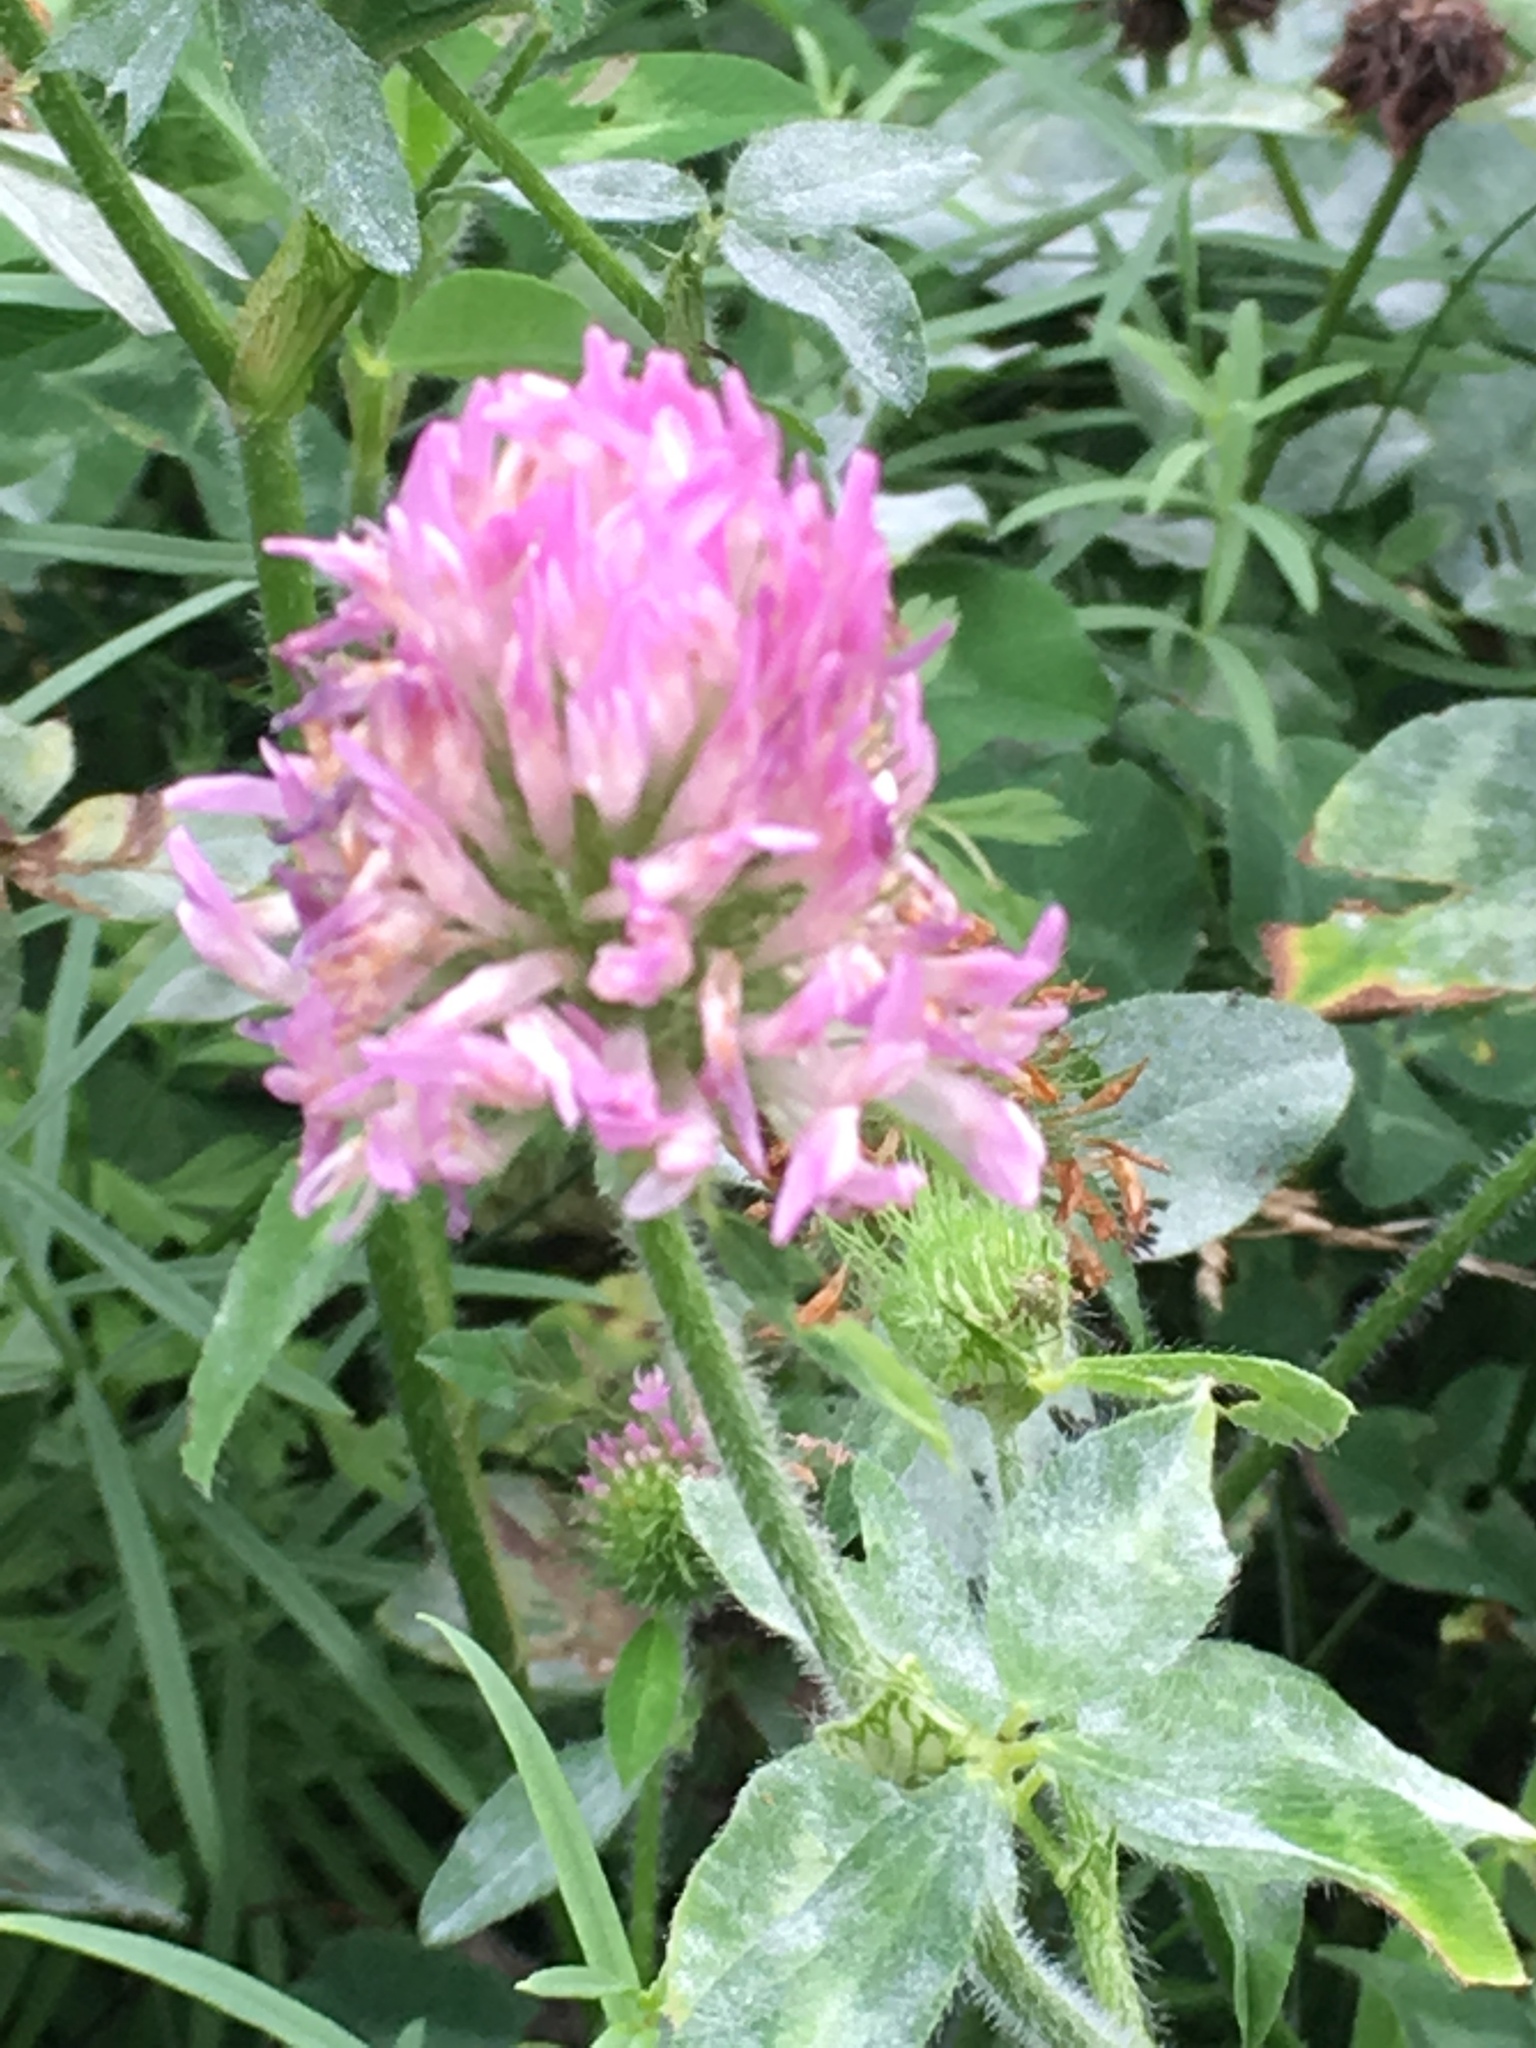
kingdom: Plantae
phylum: Tracheophyta
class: Magnoliopsida
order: Fabales
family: Fabaceae
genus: Trifolium
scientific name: Trifolium pratense
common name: Red clover
